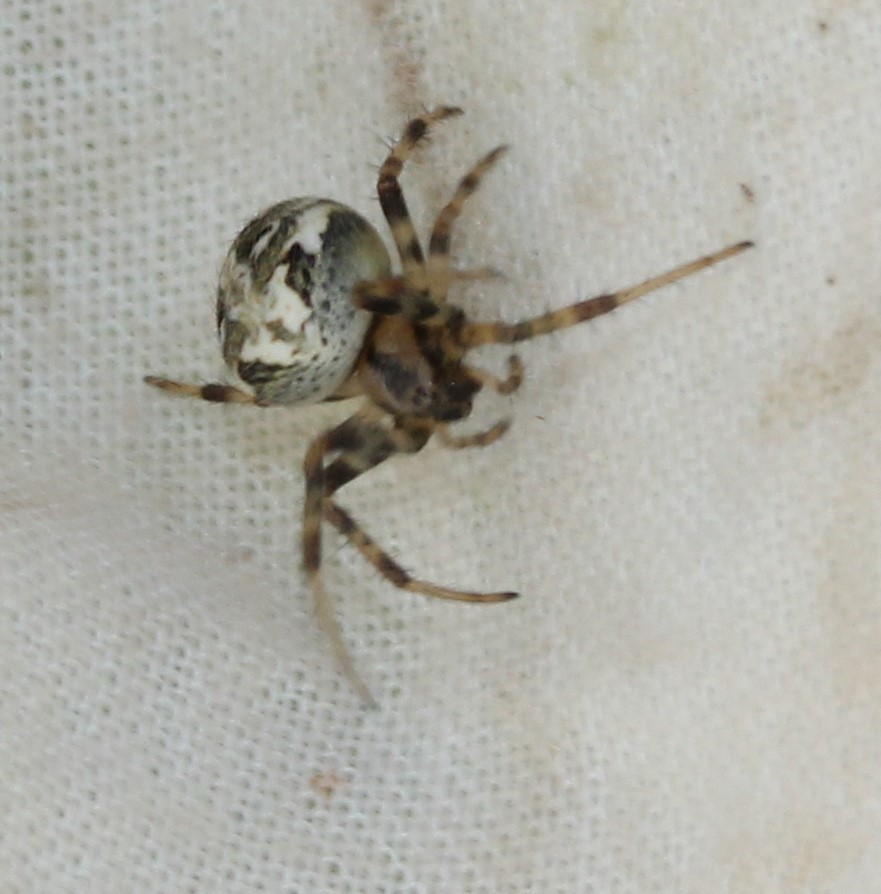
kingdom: Animalia
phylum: Arthropoda
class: Arachnida
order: Araneae
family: Araneidae
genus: Neoscona
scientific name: Neoscona arabesca
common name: Orb weavers
